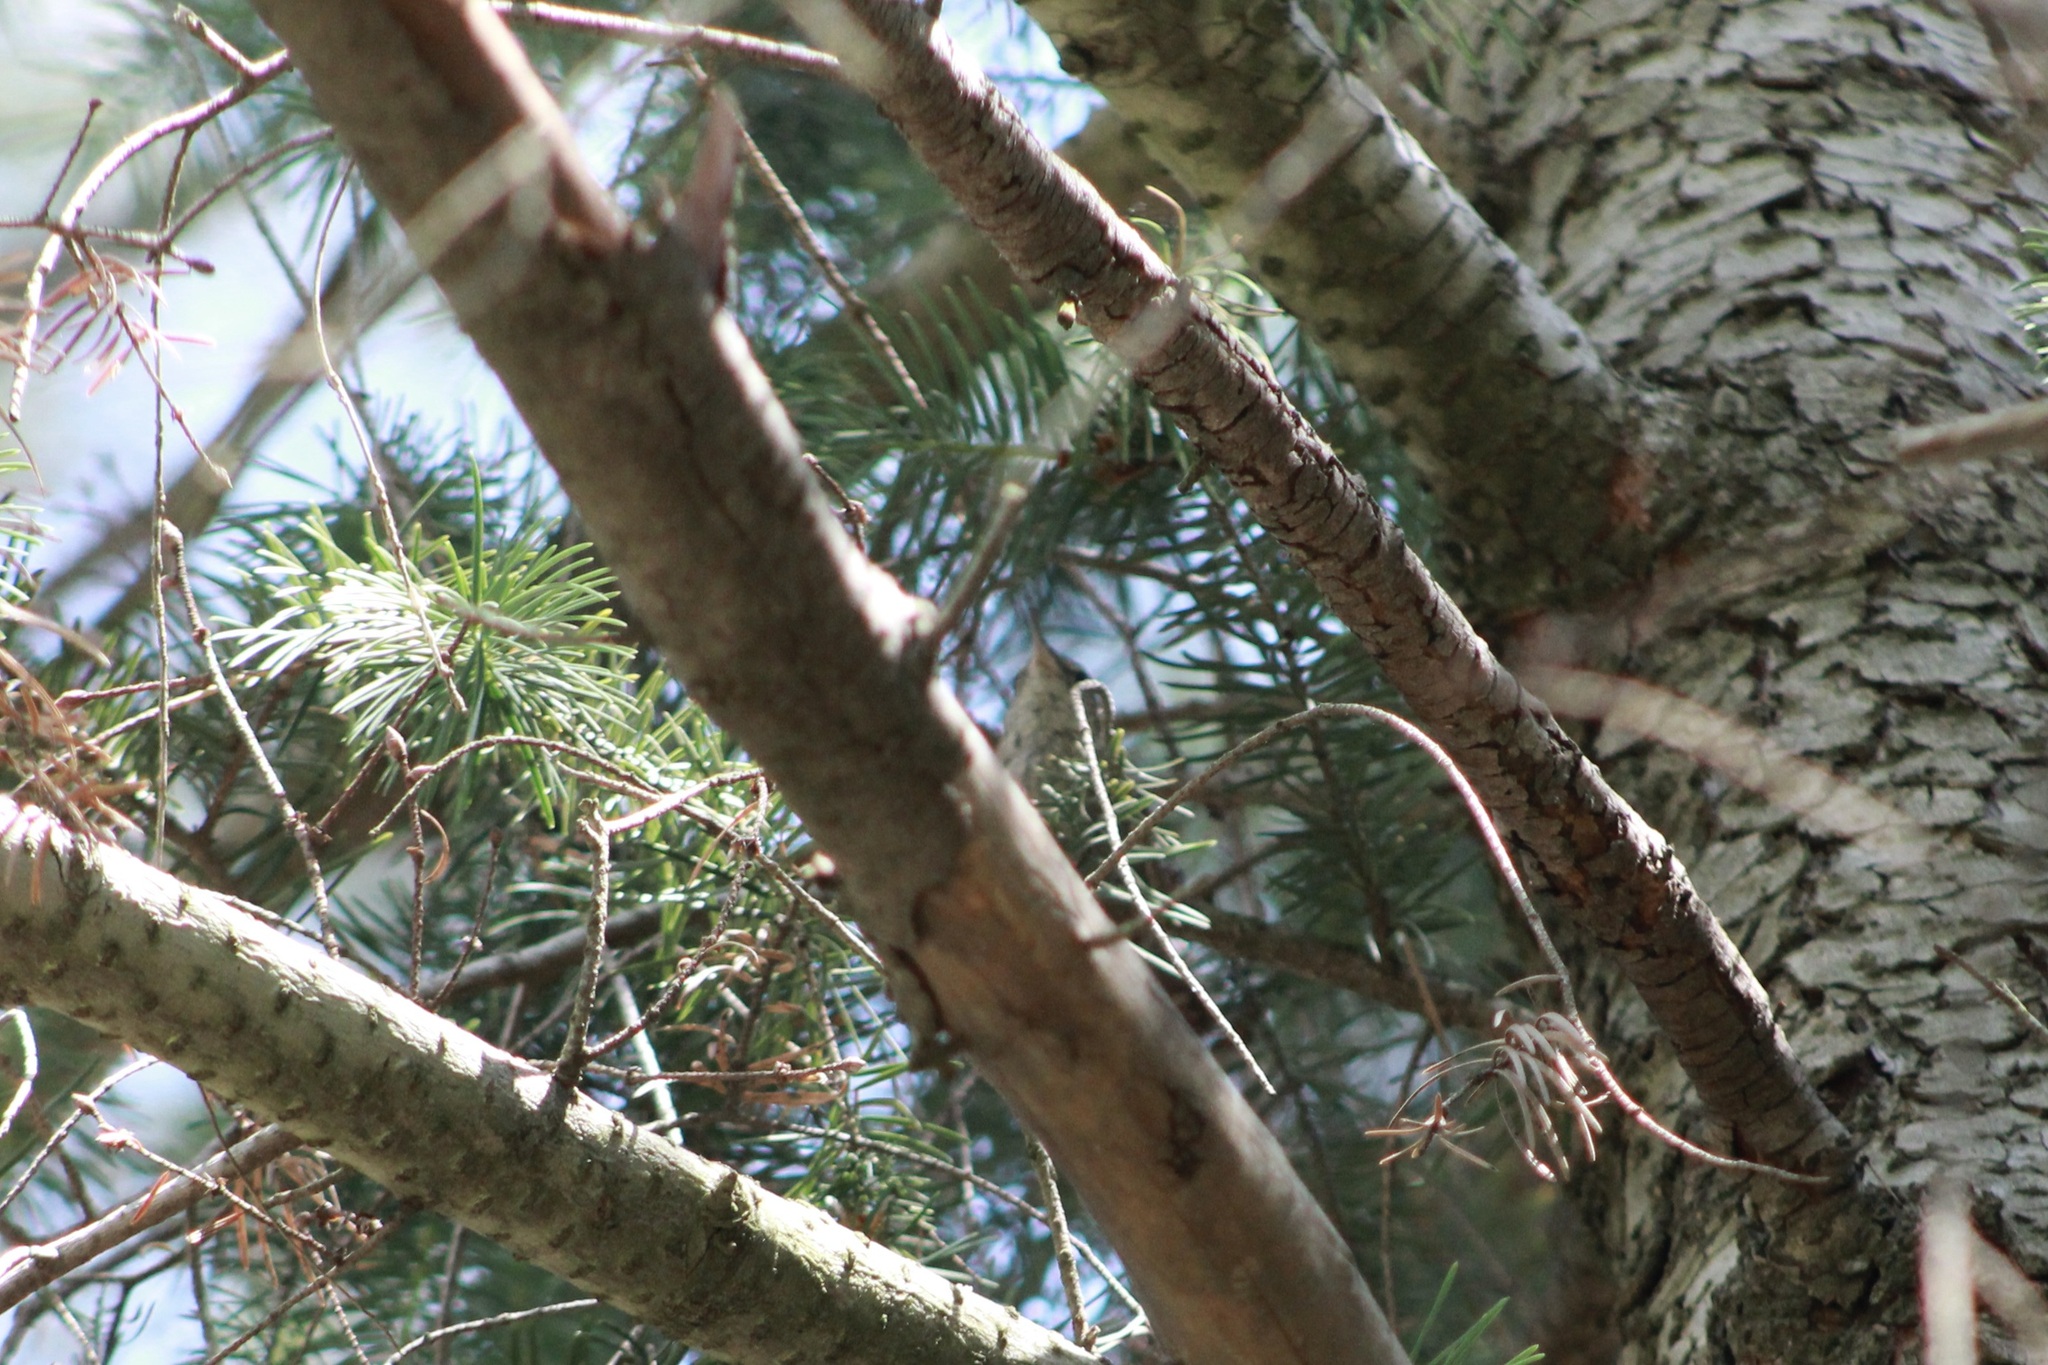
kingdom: Animalia
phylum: Chordata
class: Aves
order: Passeriformes
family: Troglodytidae
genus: Thryomanes
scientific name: Thryomanes bewickii
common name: Bewick's wren
